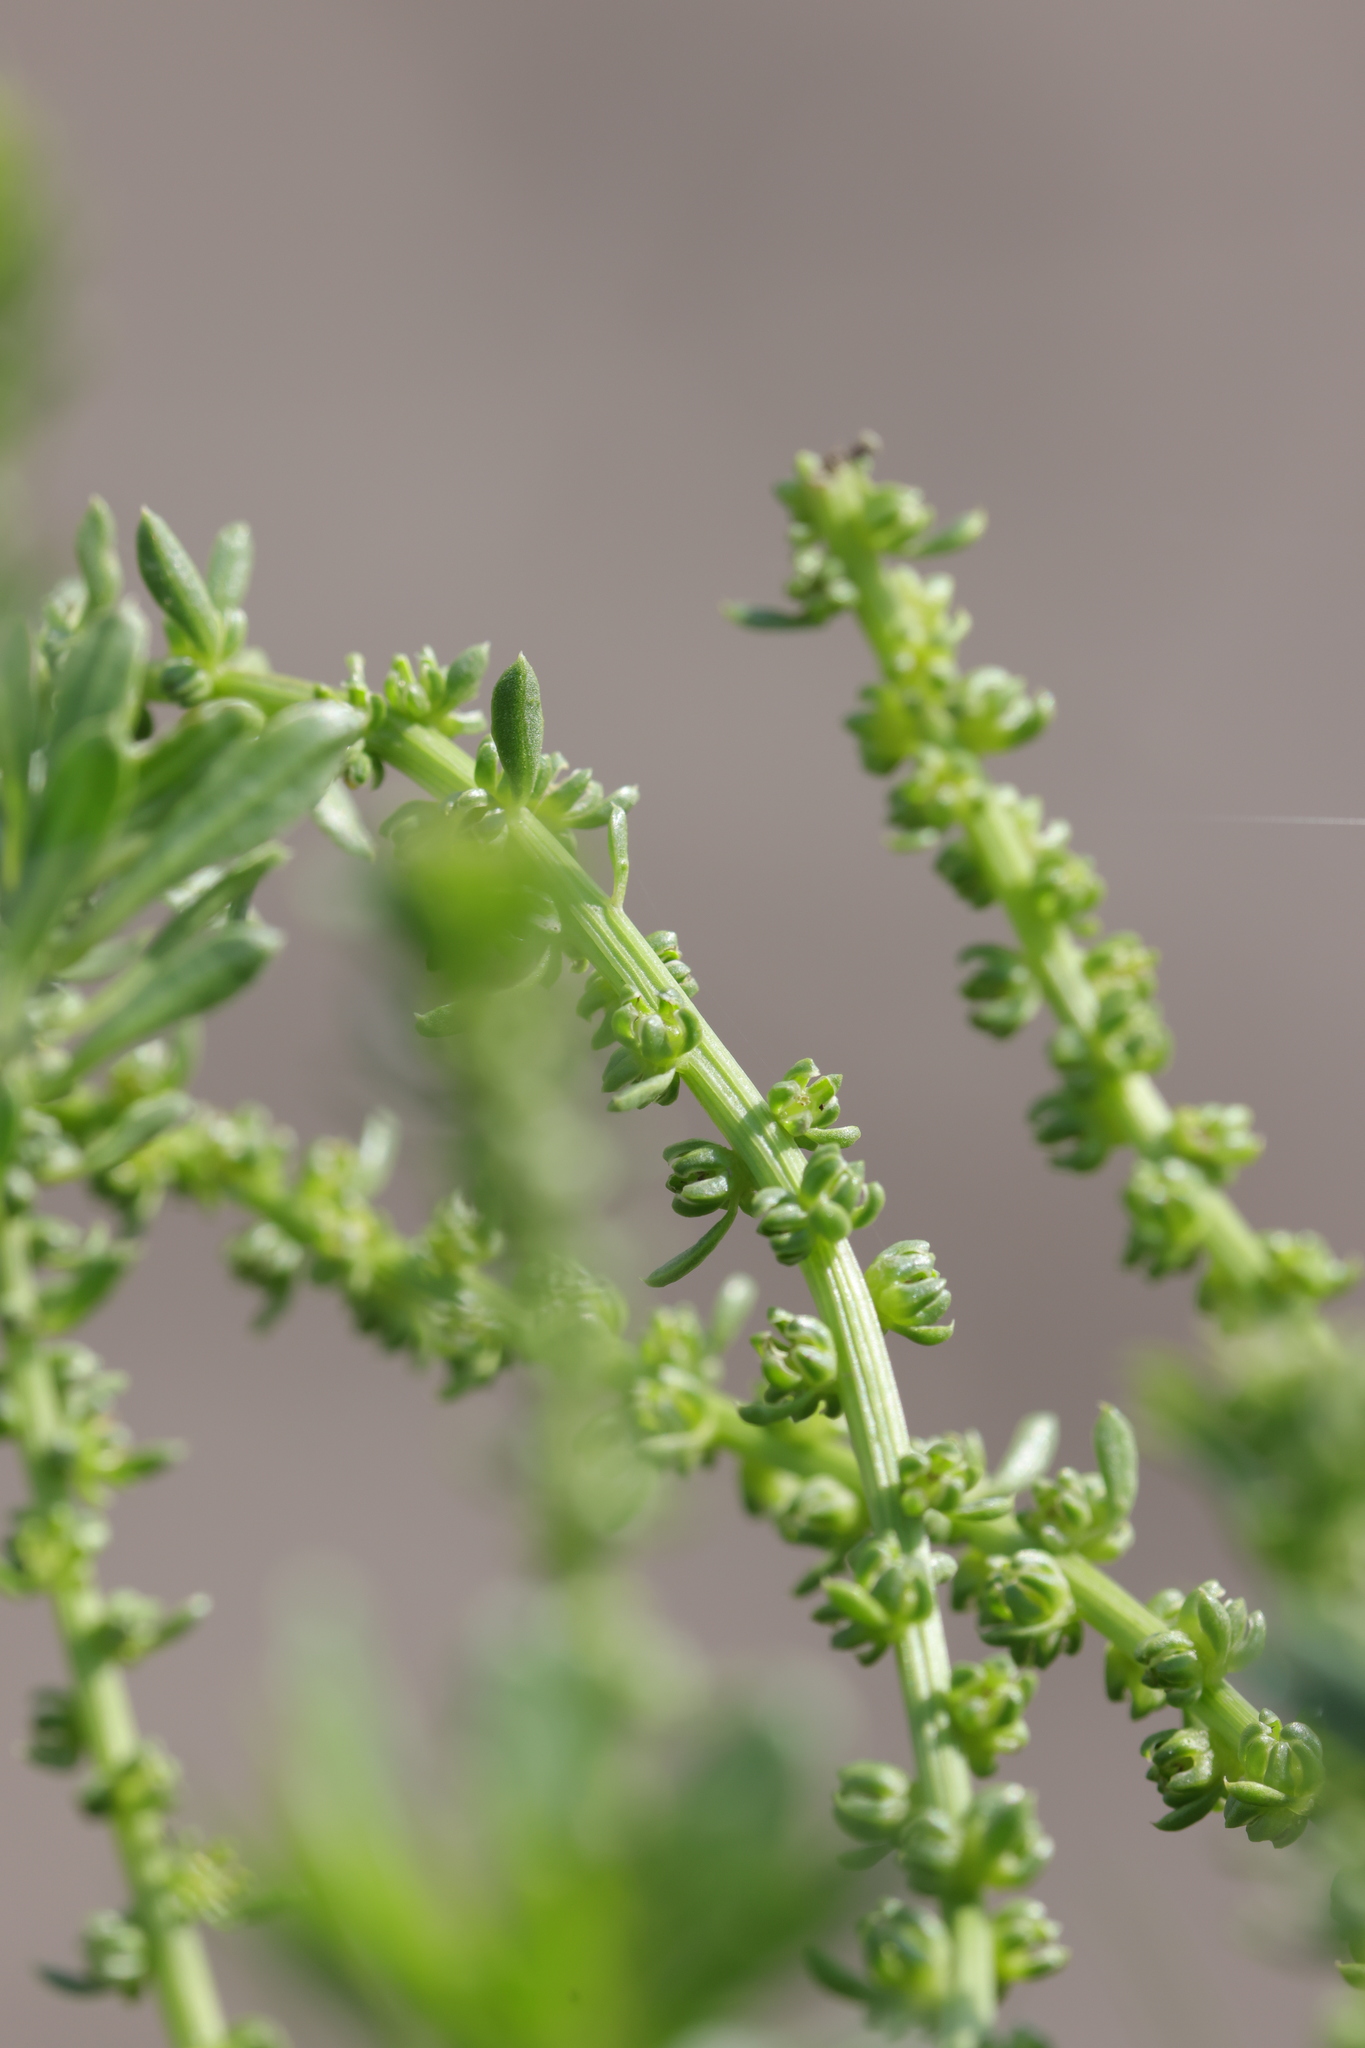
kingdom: Plantae
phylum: Tracheophyta
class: Magnoliopsida
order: Caryophyllales
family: Amaranthaceae
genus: Beta
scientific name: Beta vulgaris
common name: Beet
